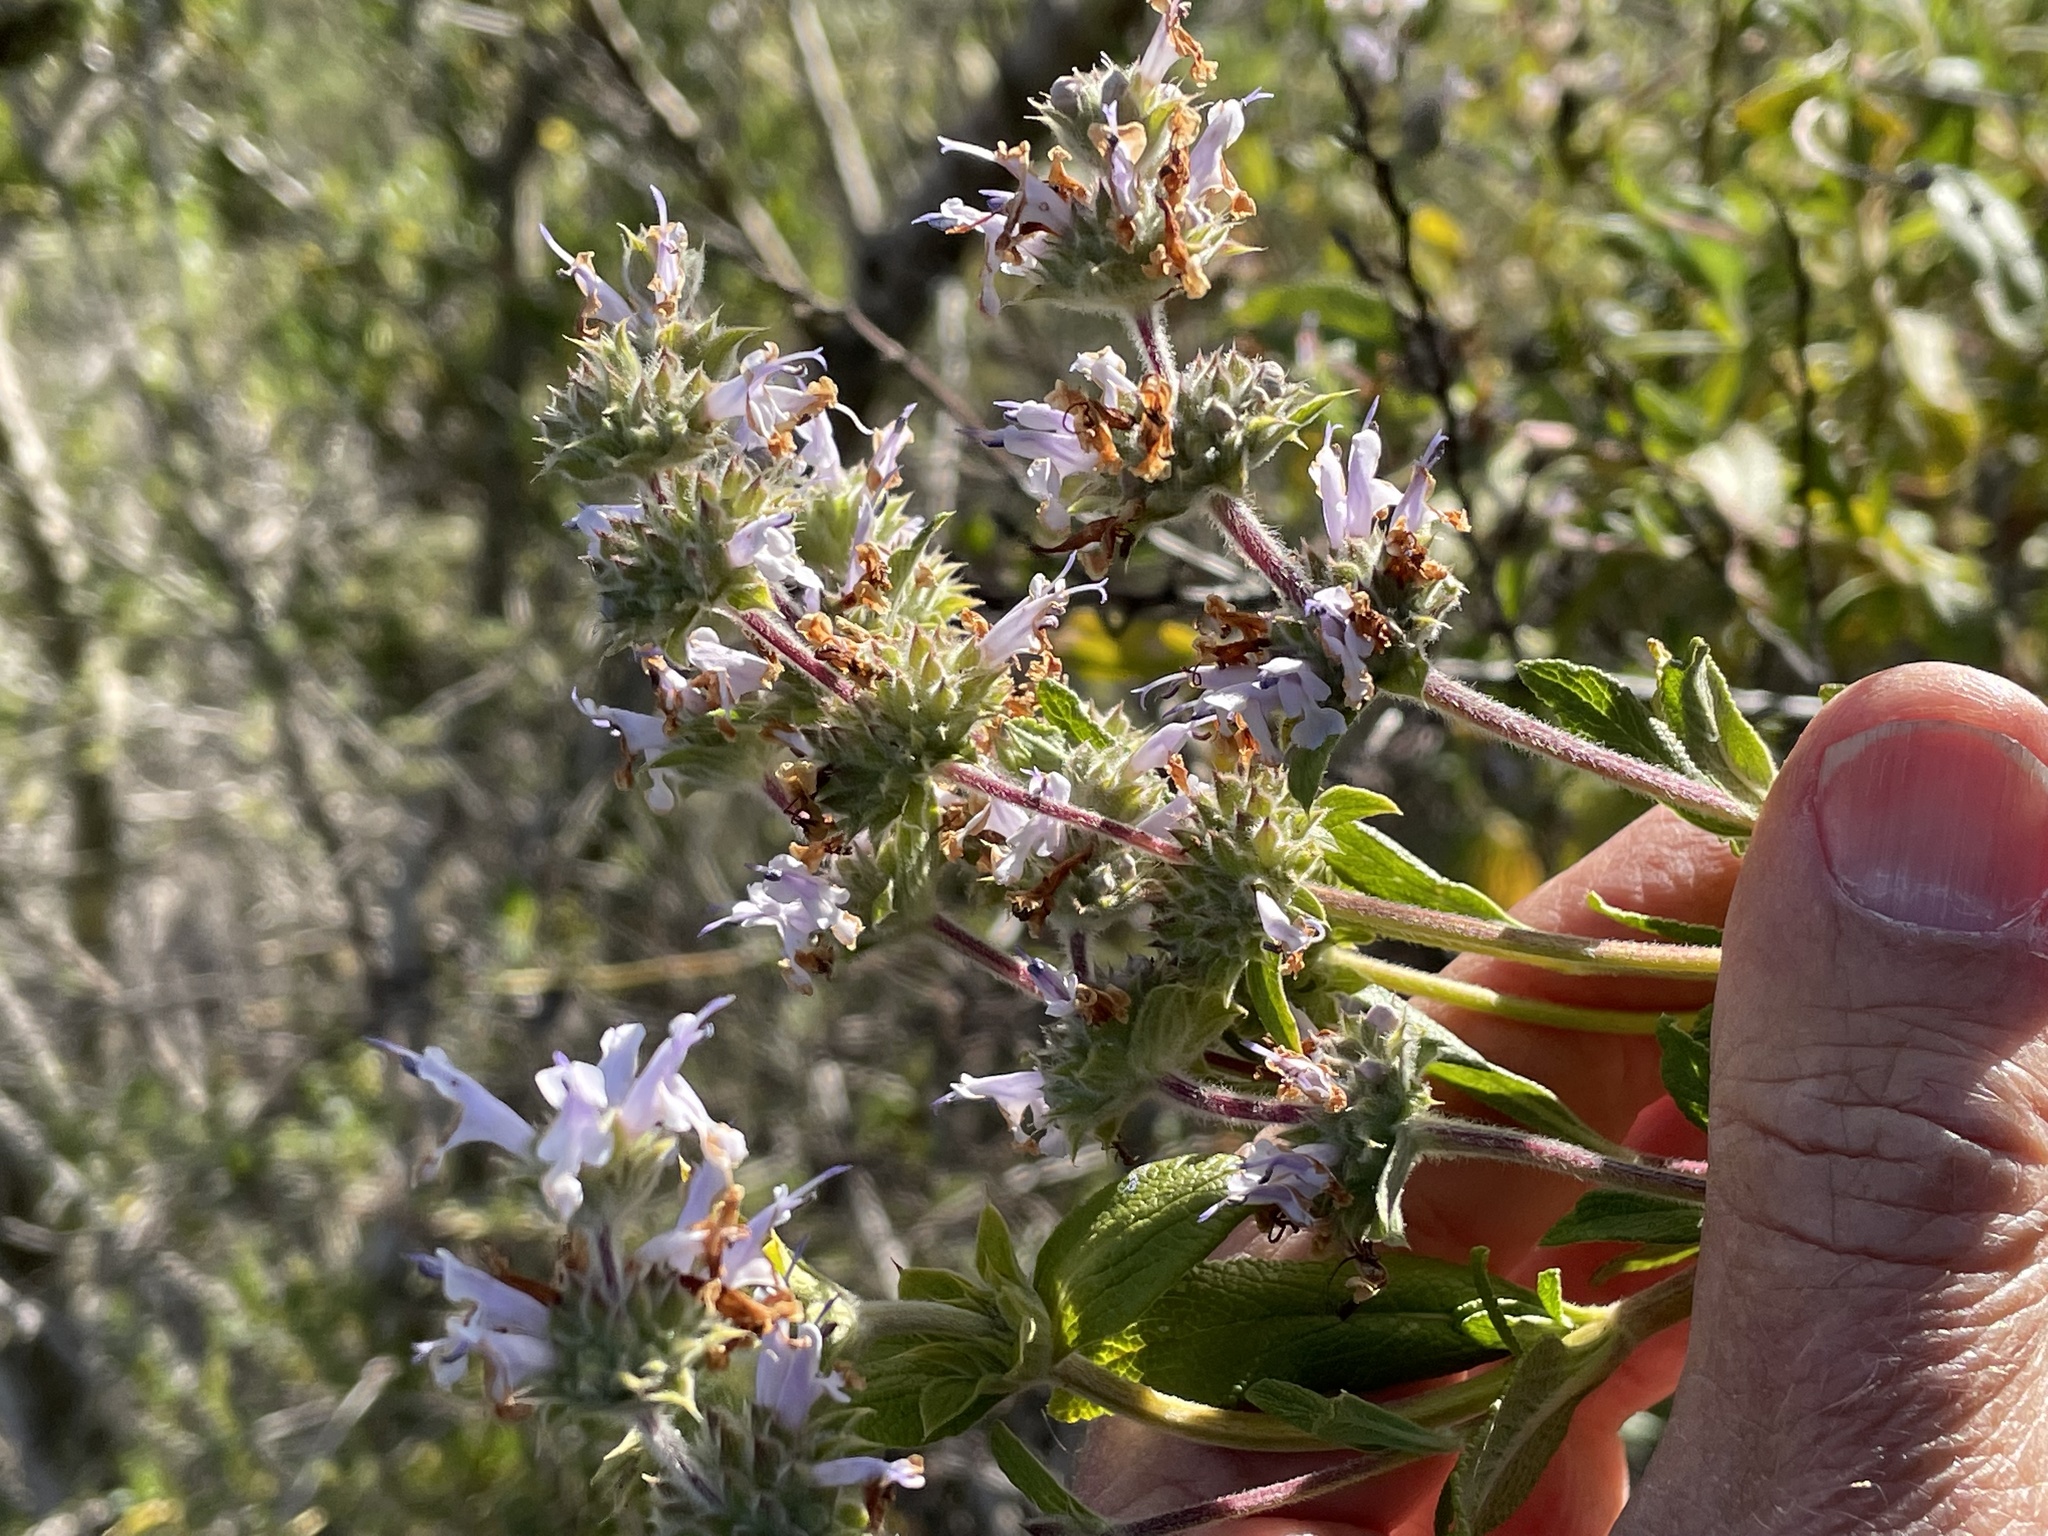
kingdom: Plantae
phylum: Tracheophyta
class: Magnoliopsida
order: Lamiales
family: Lamiaceae
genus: Salvia
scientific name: Salvia mellifera
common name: Black sage
